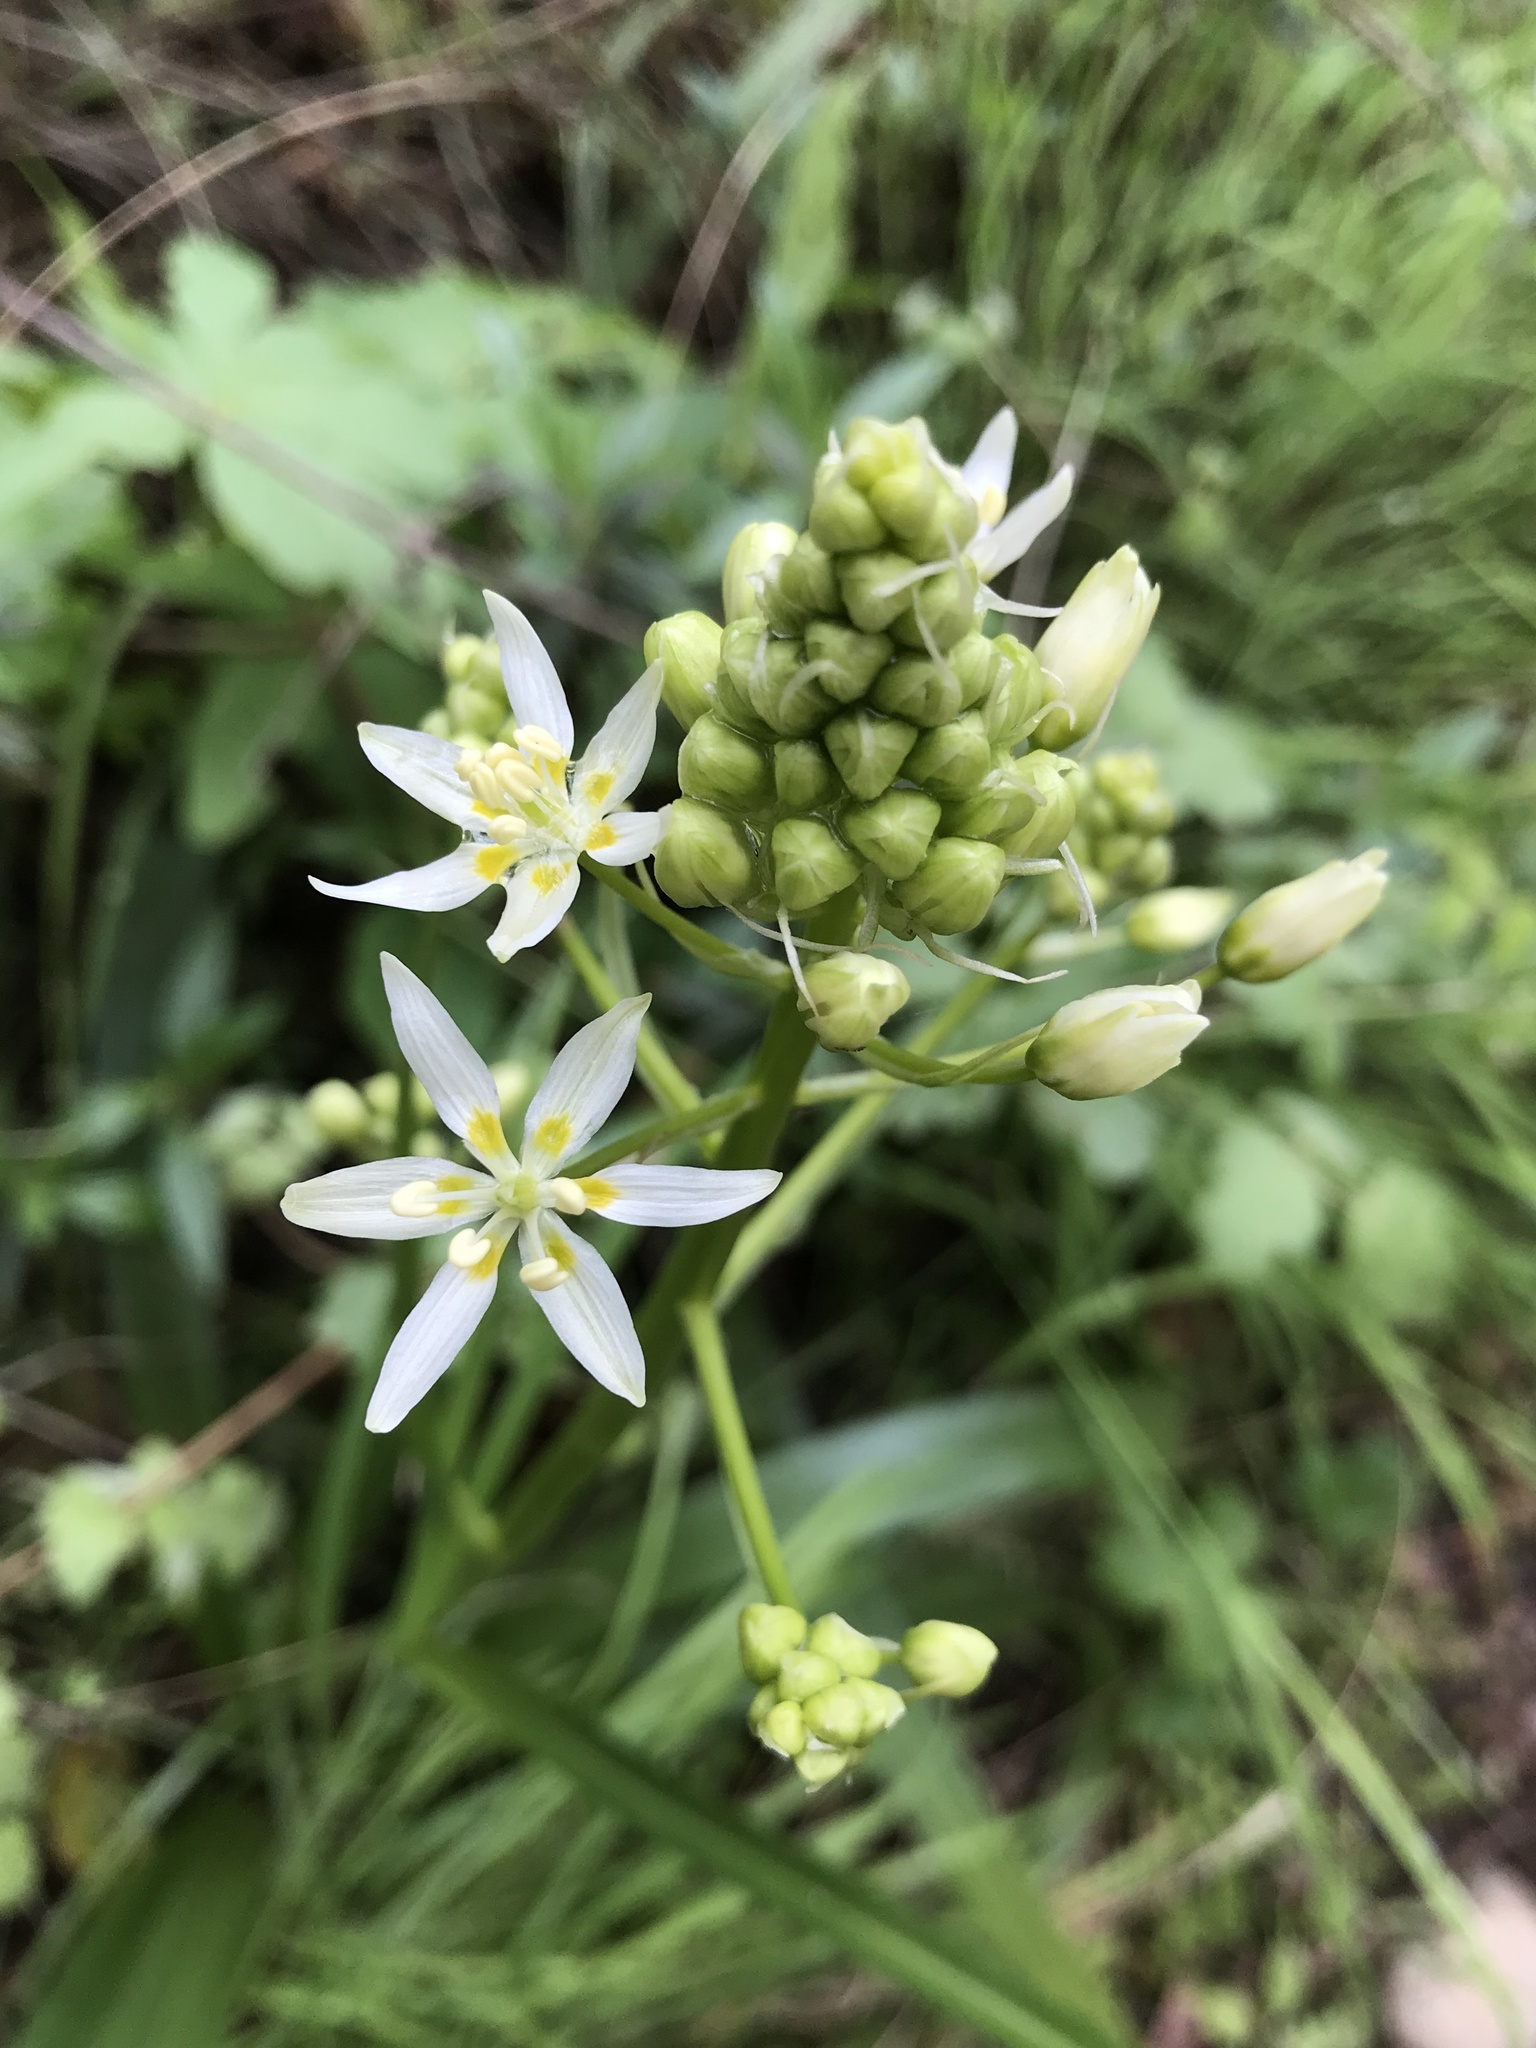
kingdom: Plantae
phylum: Tracheophyta
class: Liliopsida
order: Liliales
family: Melanthiaceae
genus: Toxicoscordion
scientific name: Toxicoscordion fremontii
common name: Fremont's death camas
